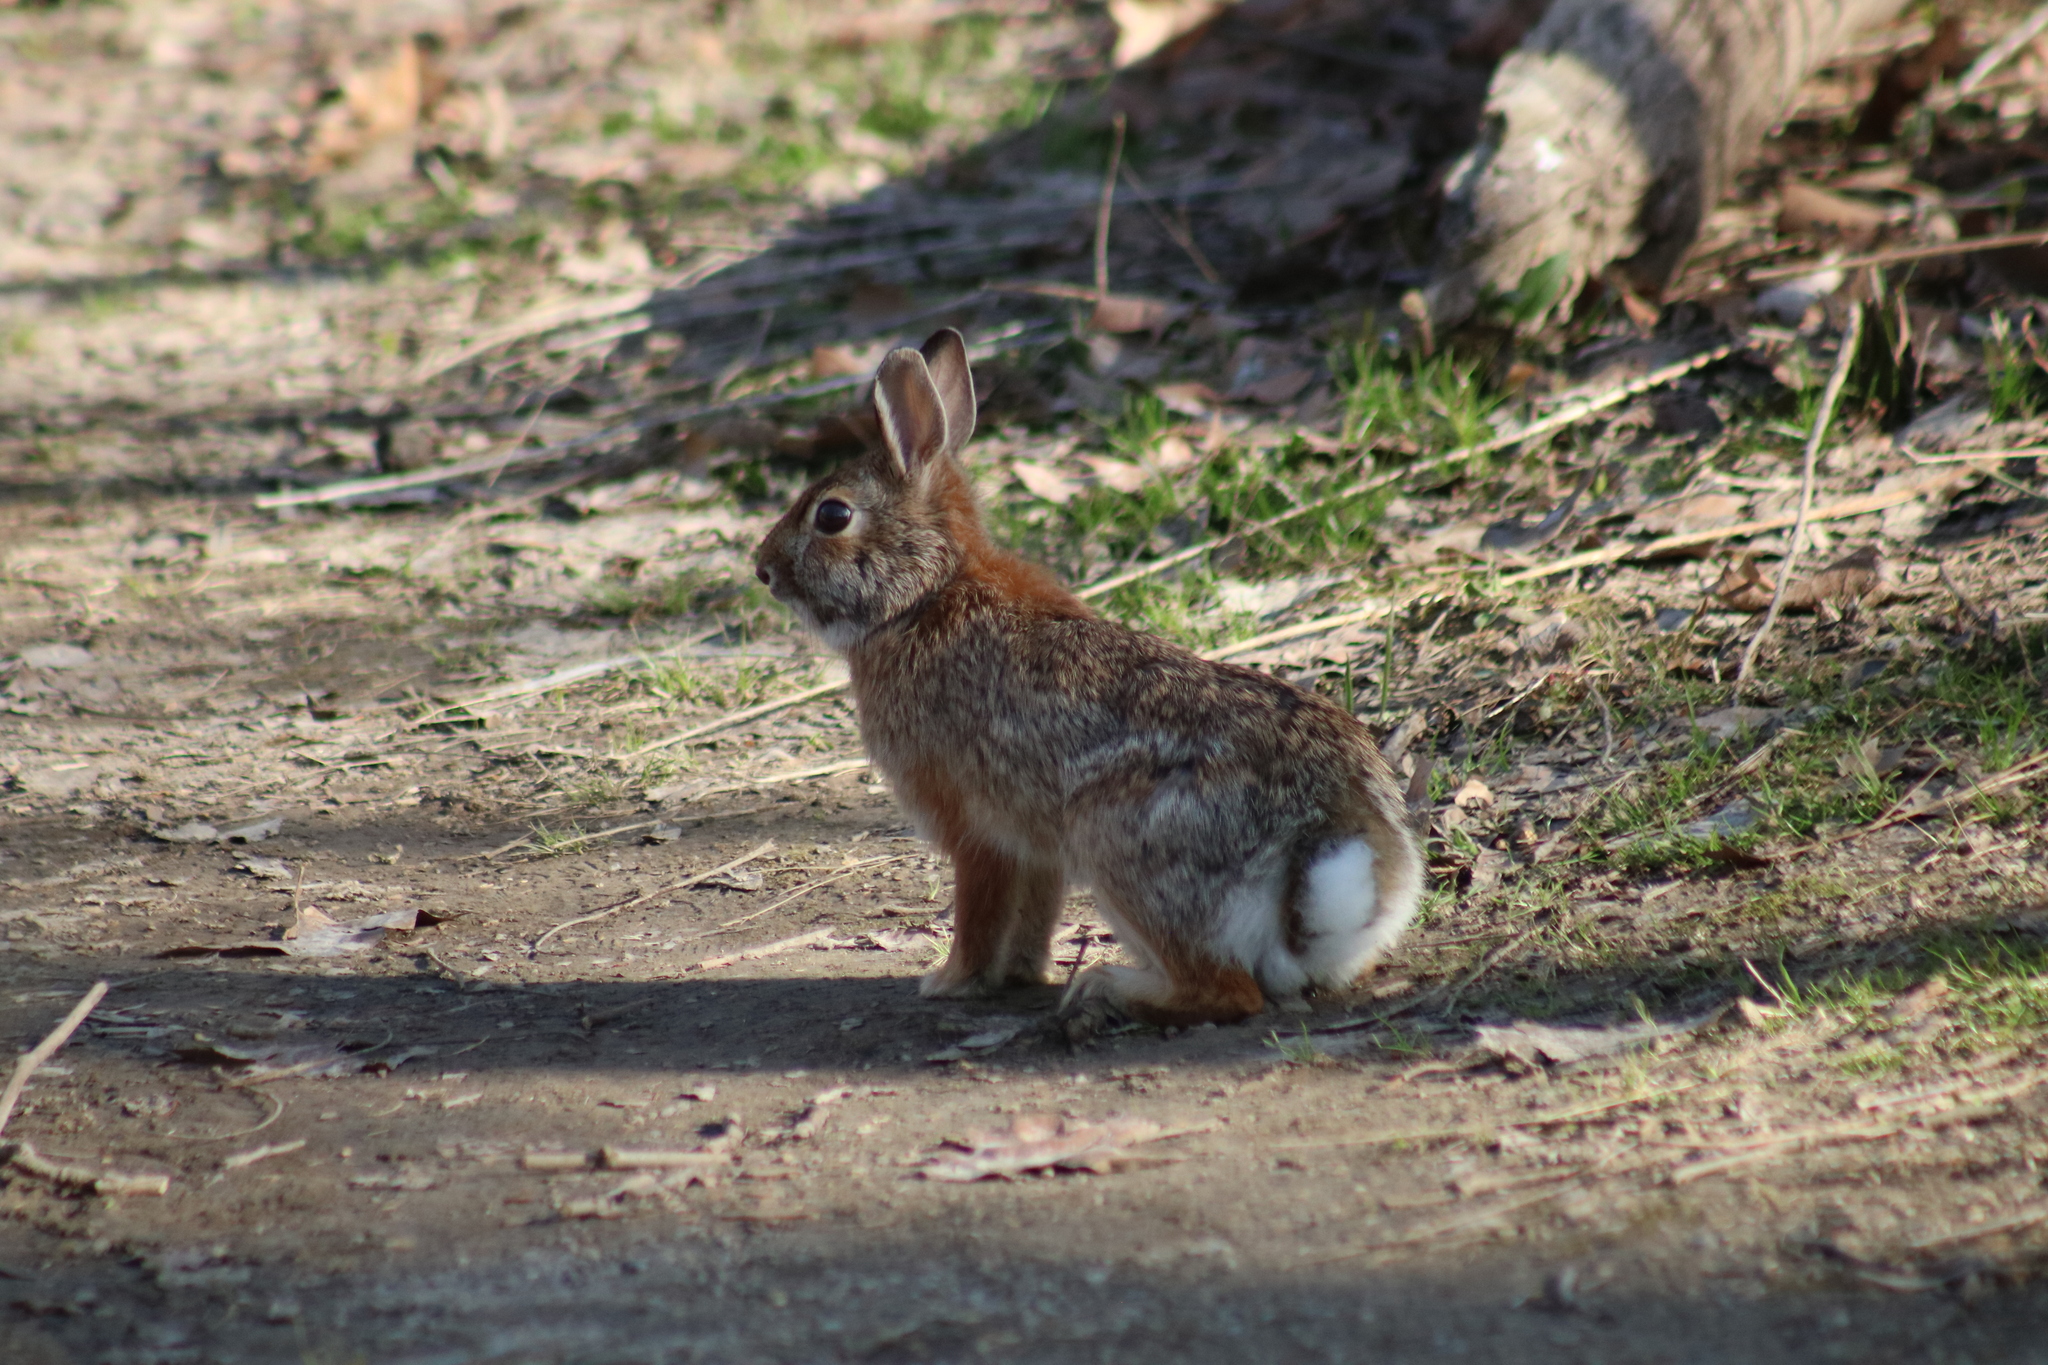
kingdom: Animalia
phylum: Chordata
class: Mammalia
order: Lagomorpha
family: Leporidae
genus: Sylvilagus
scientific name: Sylvilagus floridanus
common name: Eastern cottontail
